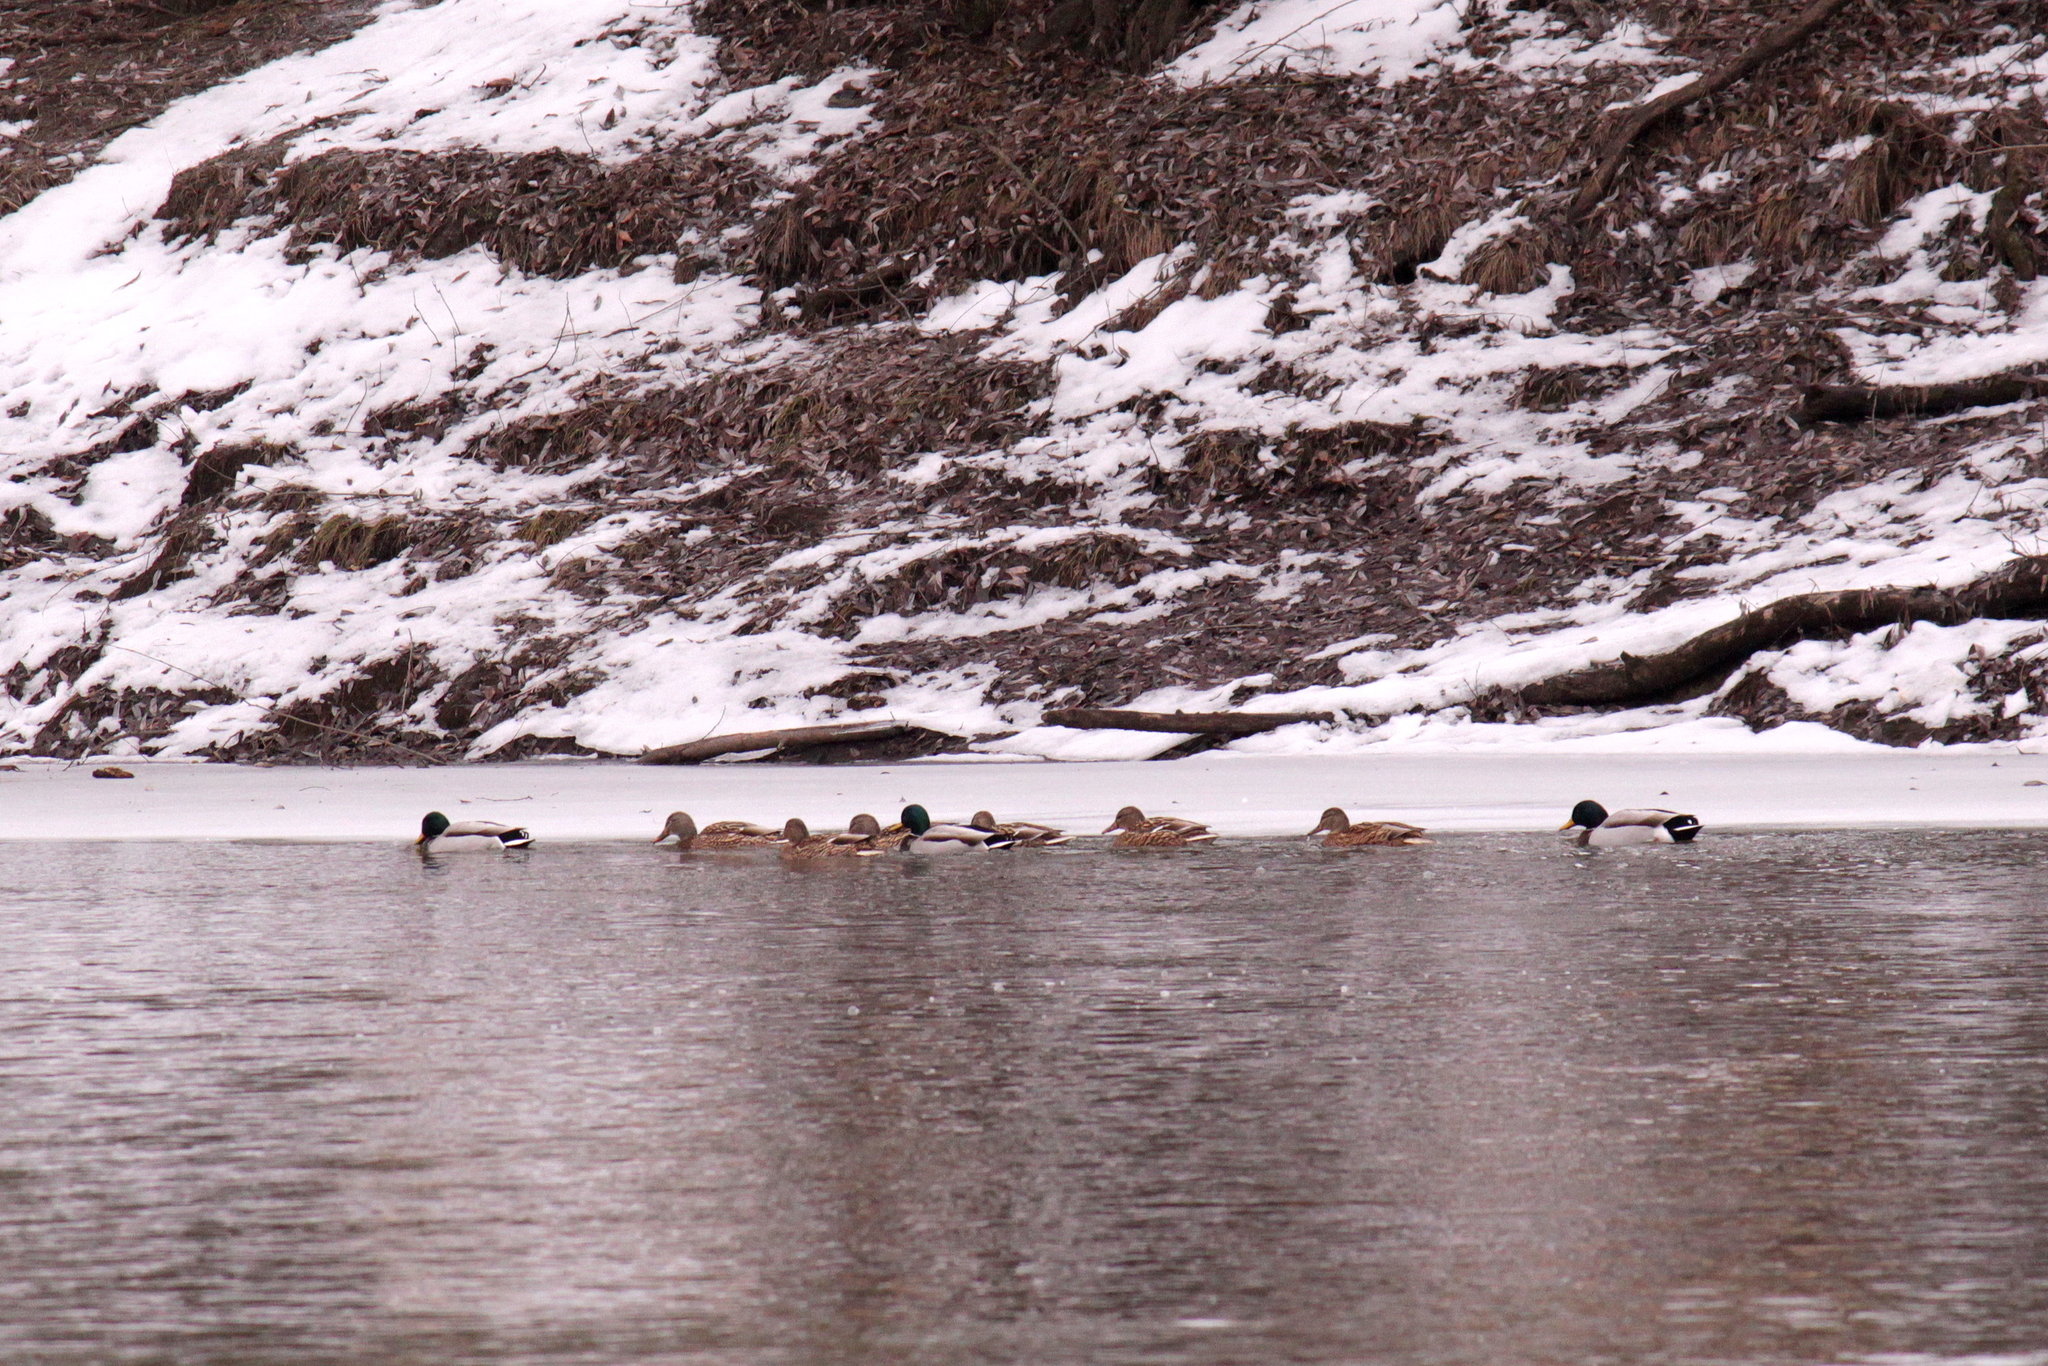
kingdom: Animalia
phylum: Chordata
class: Aves
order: Anseriformes
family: Anatidae
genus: Anas
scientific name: Anas platyrhynchos
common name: Mallard
